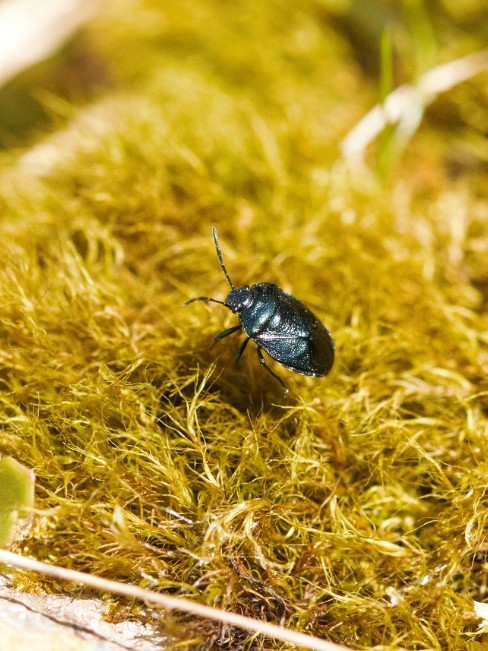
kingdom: Animalia
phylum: Arthropoda
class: Insecta
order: Hemiptera
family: Pentatomidae
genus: Eurydema
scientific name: Eurydema cyanea
